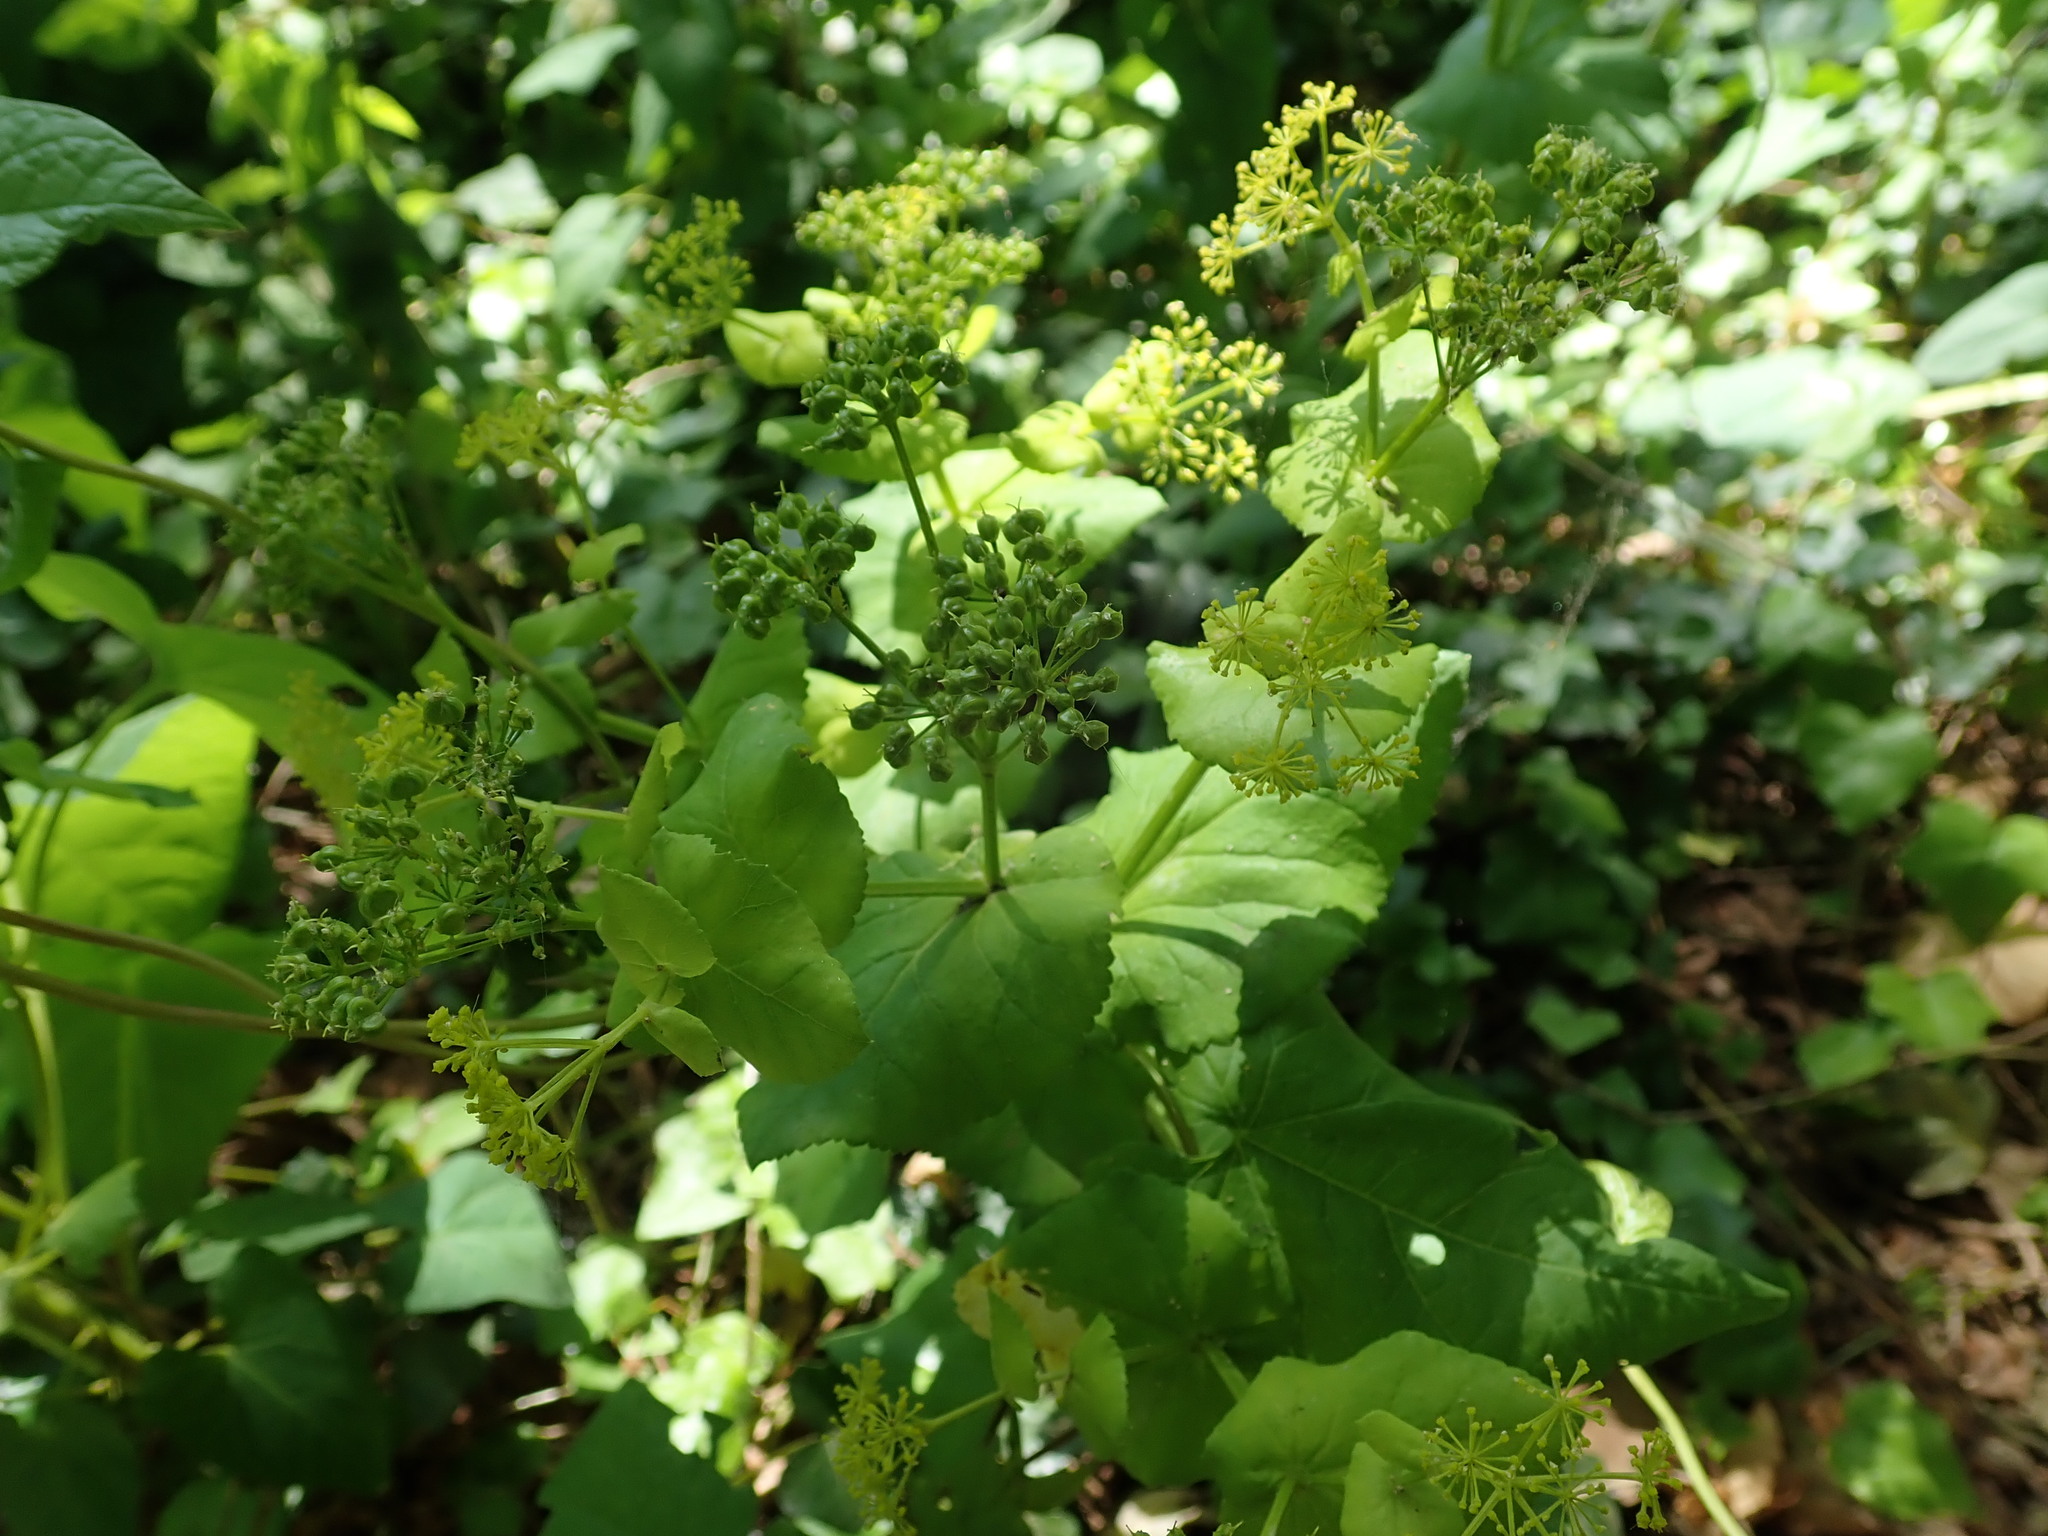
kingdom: Plantae
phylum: Tracheophyta
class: Magnoliopsida
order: Apiales
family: Apiaceae
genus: Smyrnium
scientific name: Smyrnium perfoliatum
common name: Perfoliate alexanders
